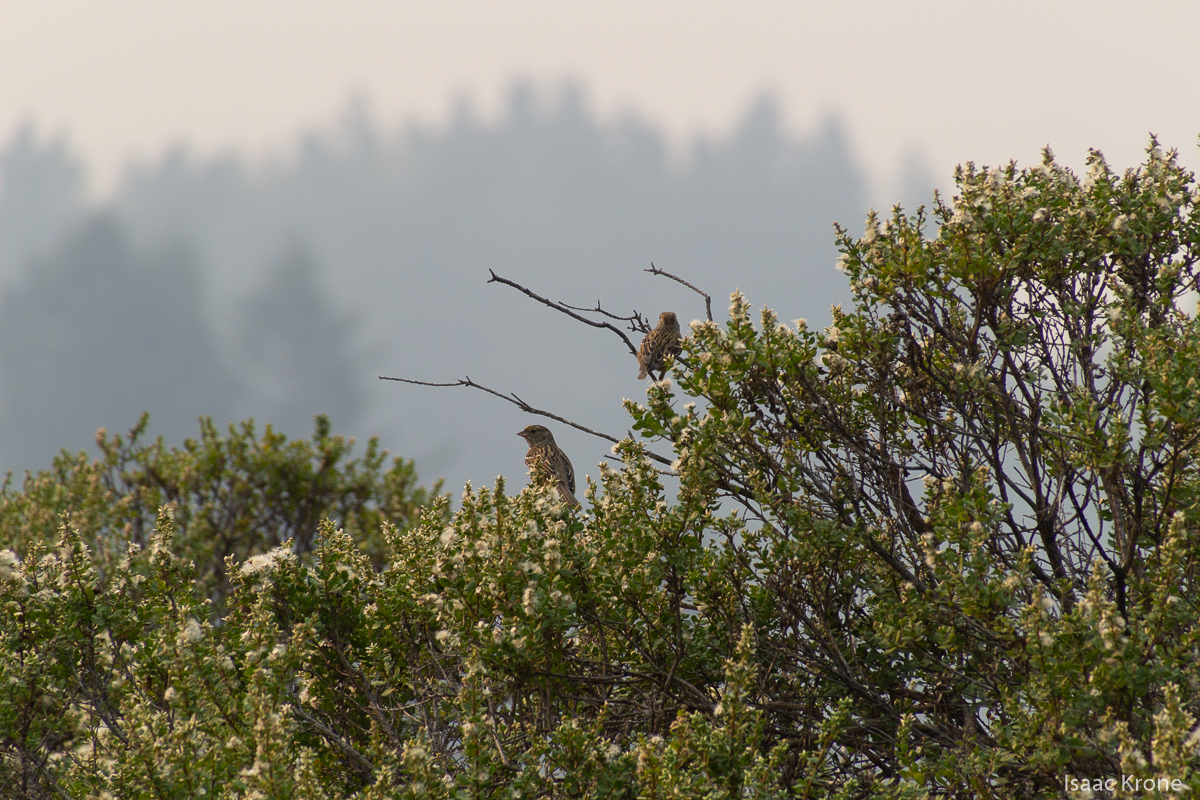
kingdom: Animalia
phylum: Chordata
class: Aves
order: Passeriformes
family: Passerellidae
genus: Zonotrichia
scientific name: Zonotrichia atricapilla
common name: Golden-crowned sparrow
